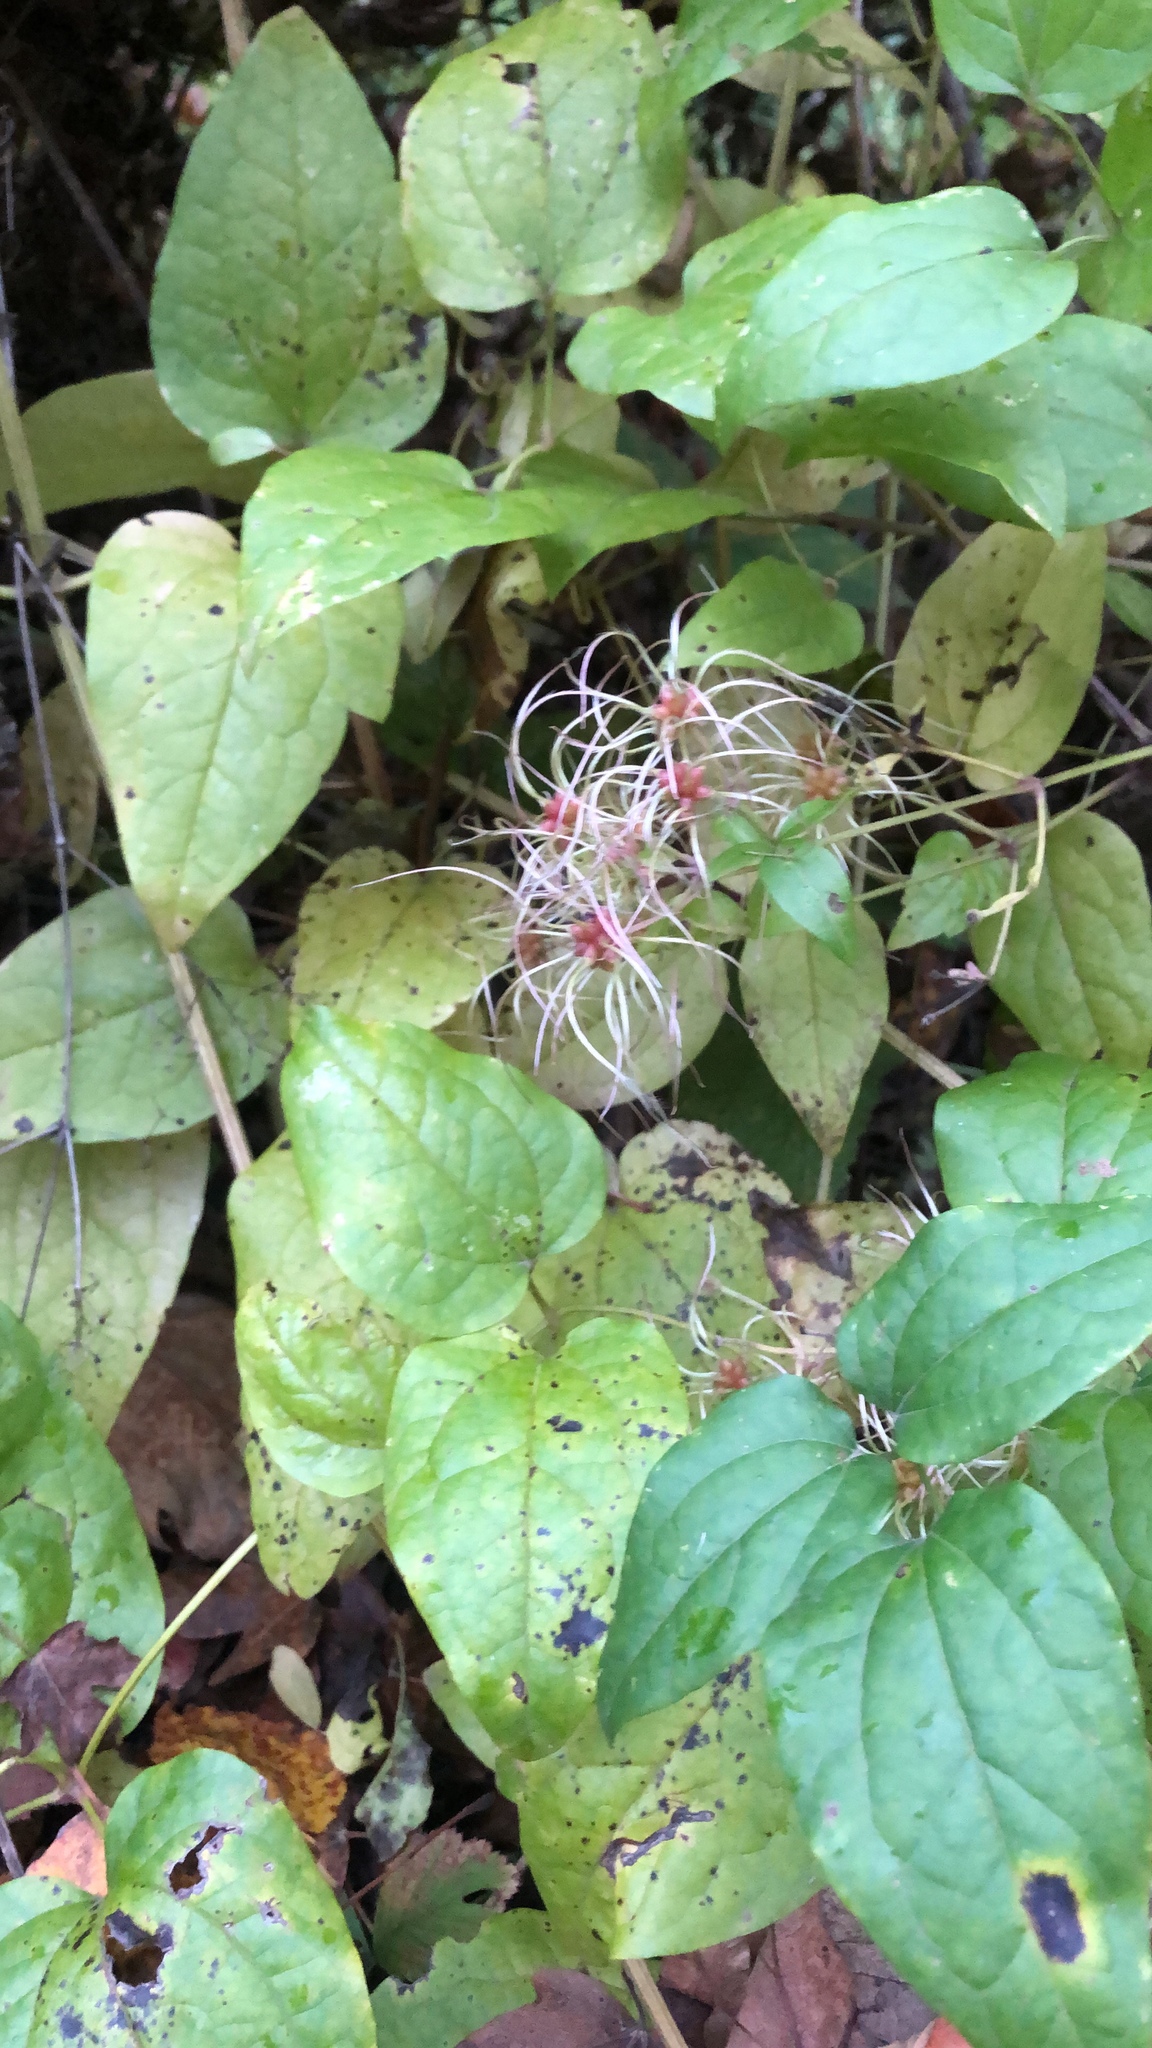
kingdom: Plantae
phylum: Tracheophyta
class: Magnoliopsida
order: Ranunculales
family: Ranunculaceae
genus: Clematis
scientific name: Clematis vitalba
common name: Evergreen clematis
